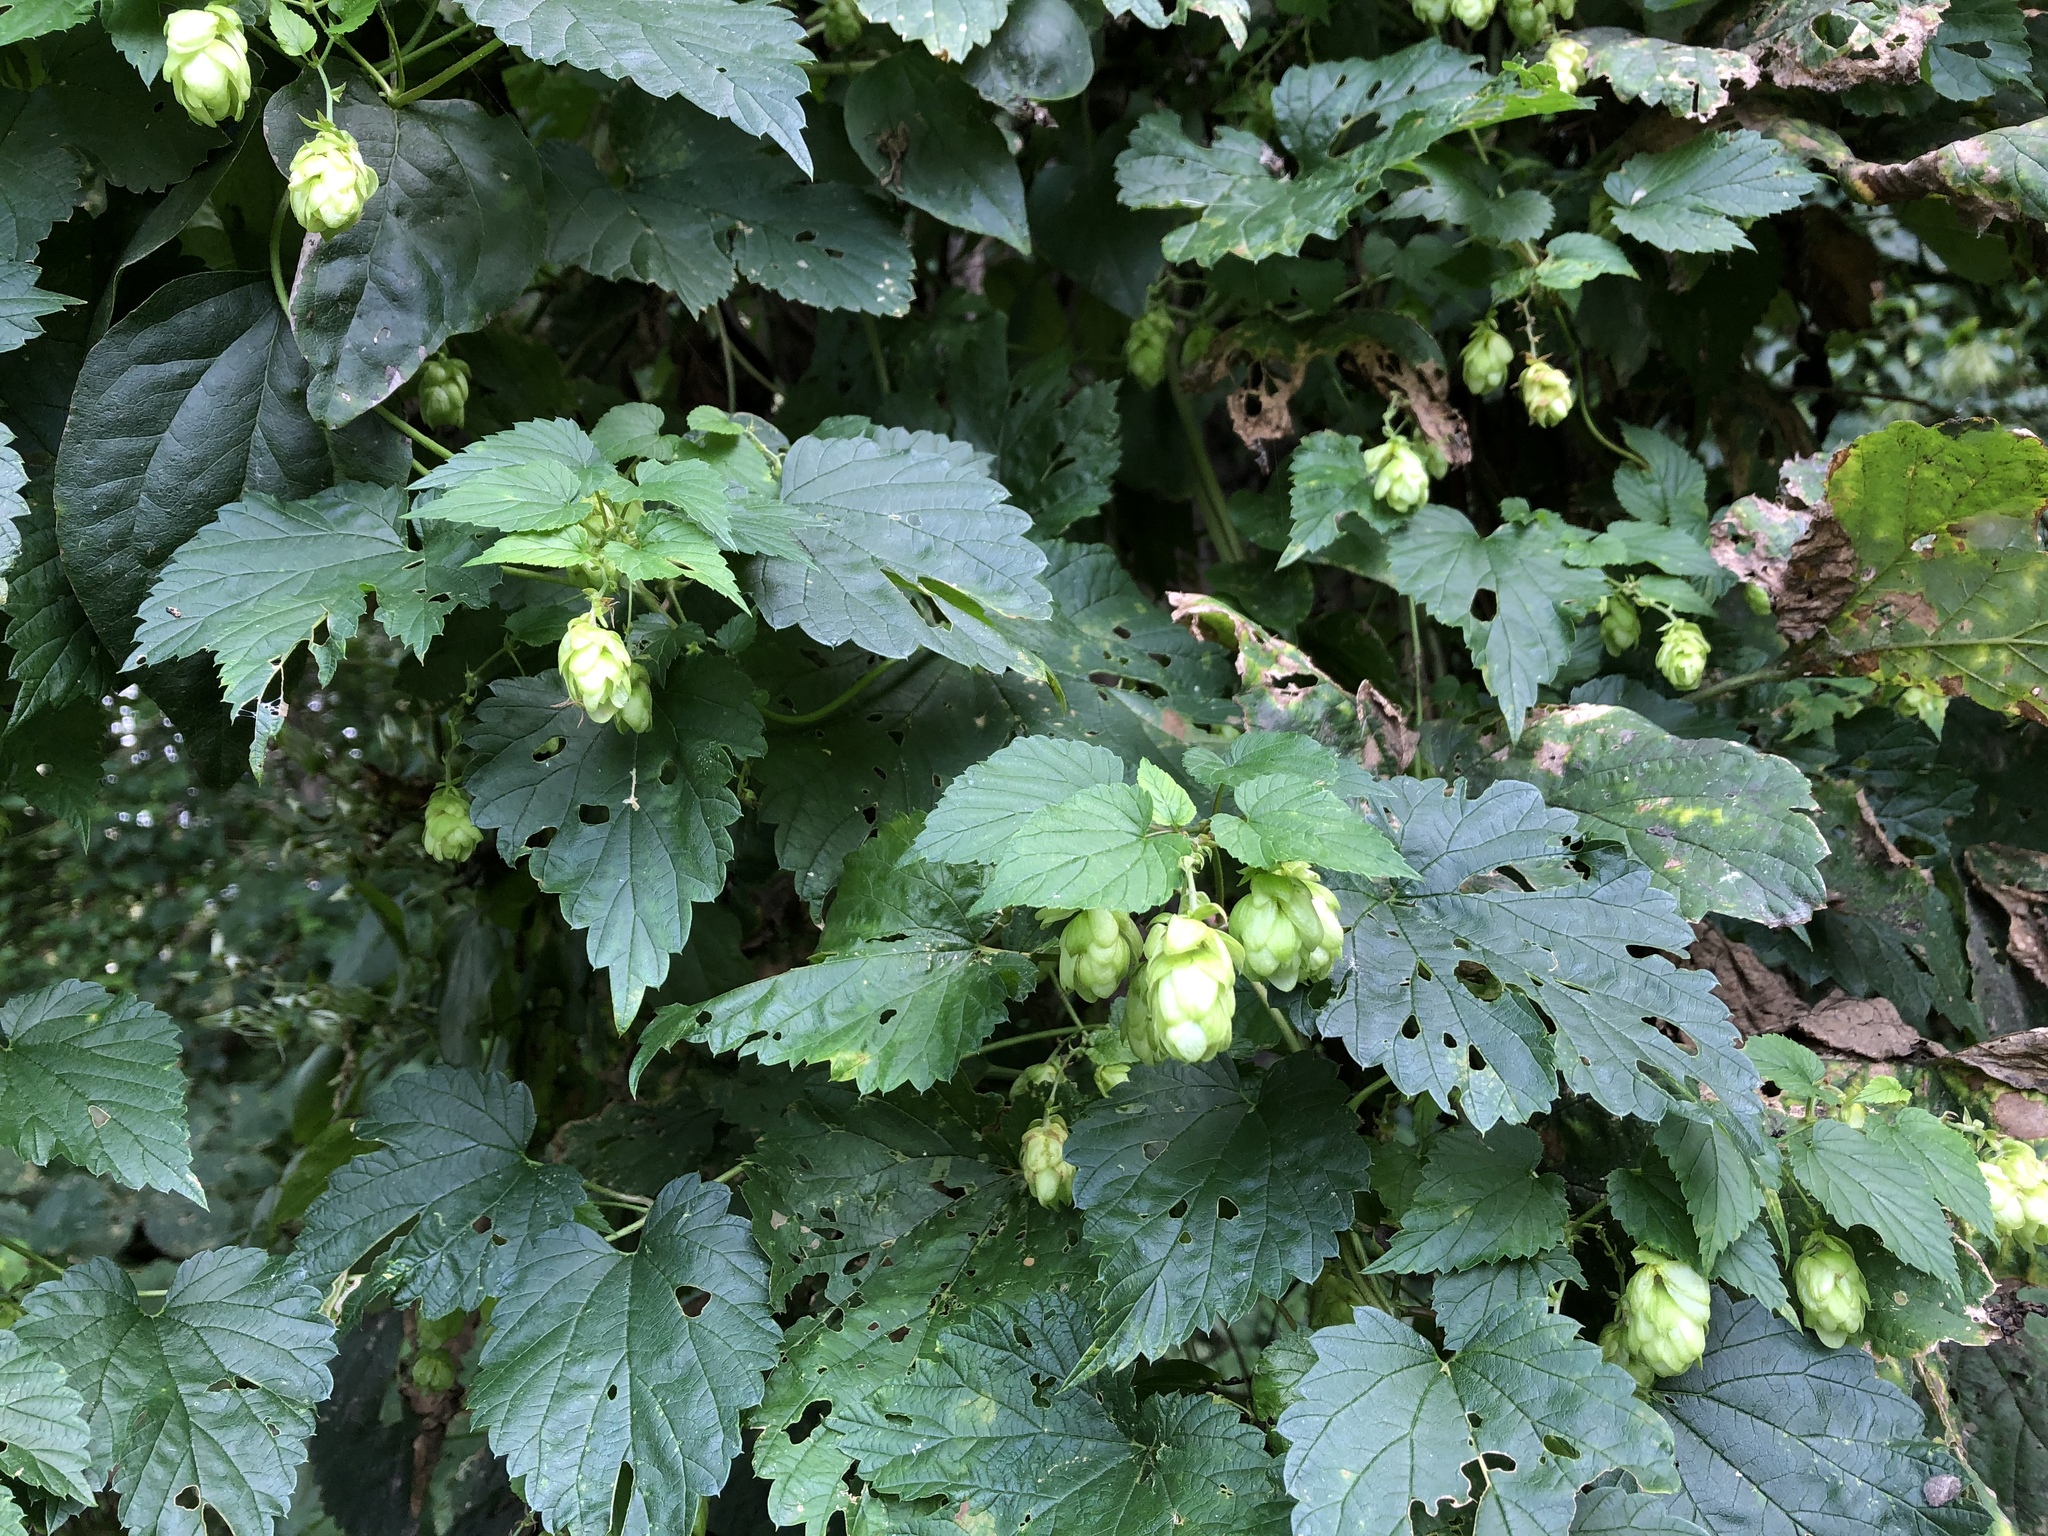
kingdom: Plantae
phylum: Tracheophyta
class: Magnoliopsida
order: Rosales
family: Cannabaceae
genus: Humulus
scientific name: Humulus lupulus
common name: Hop
